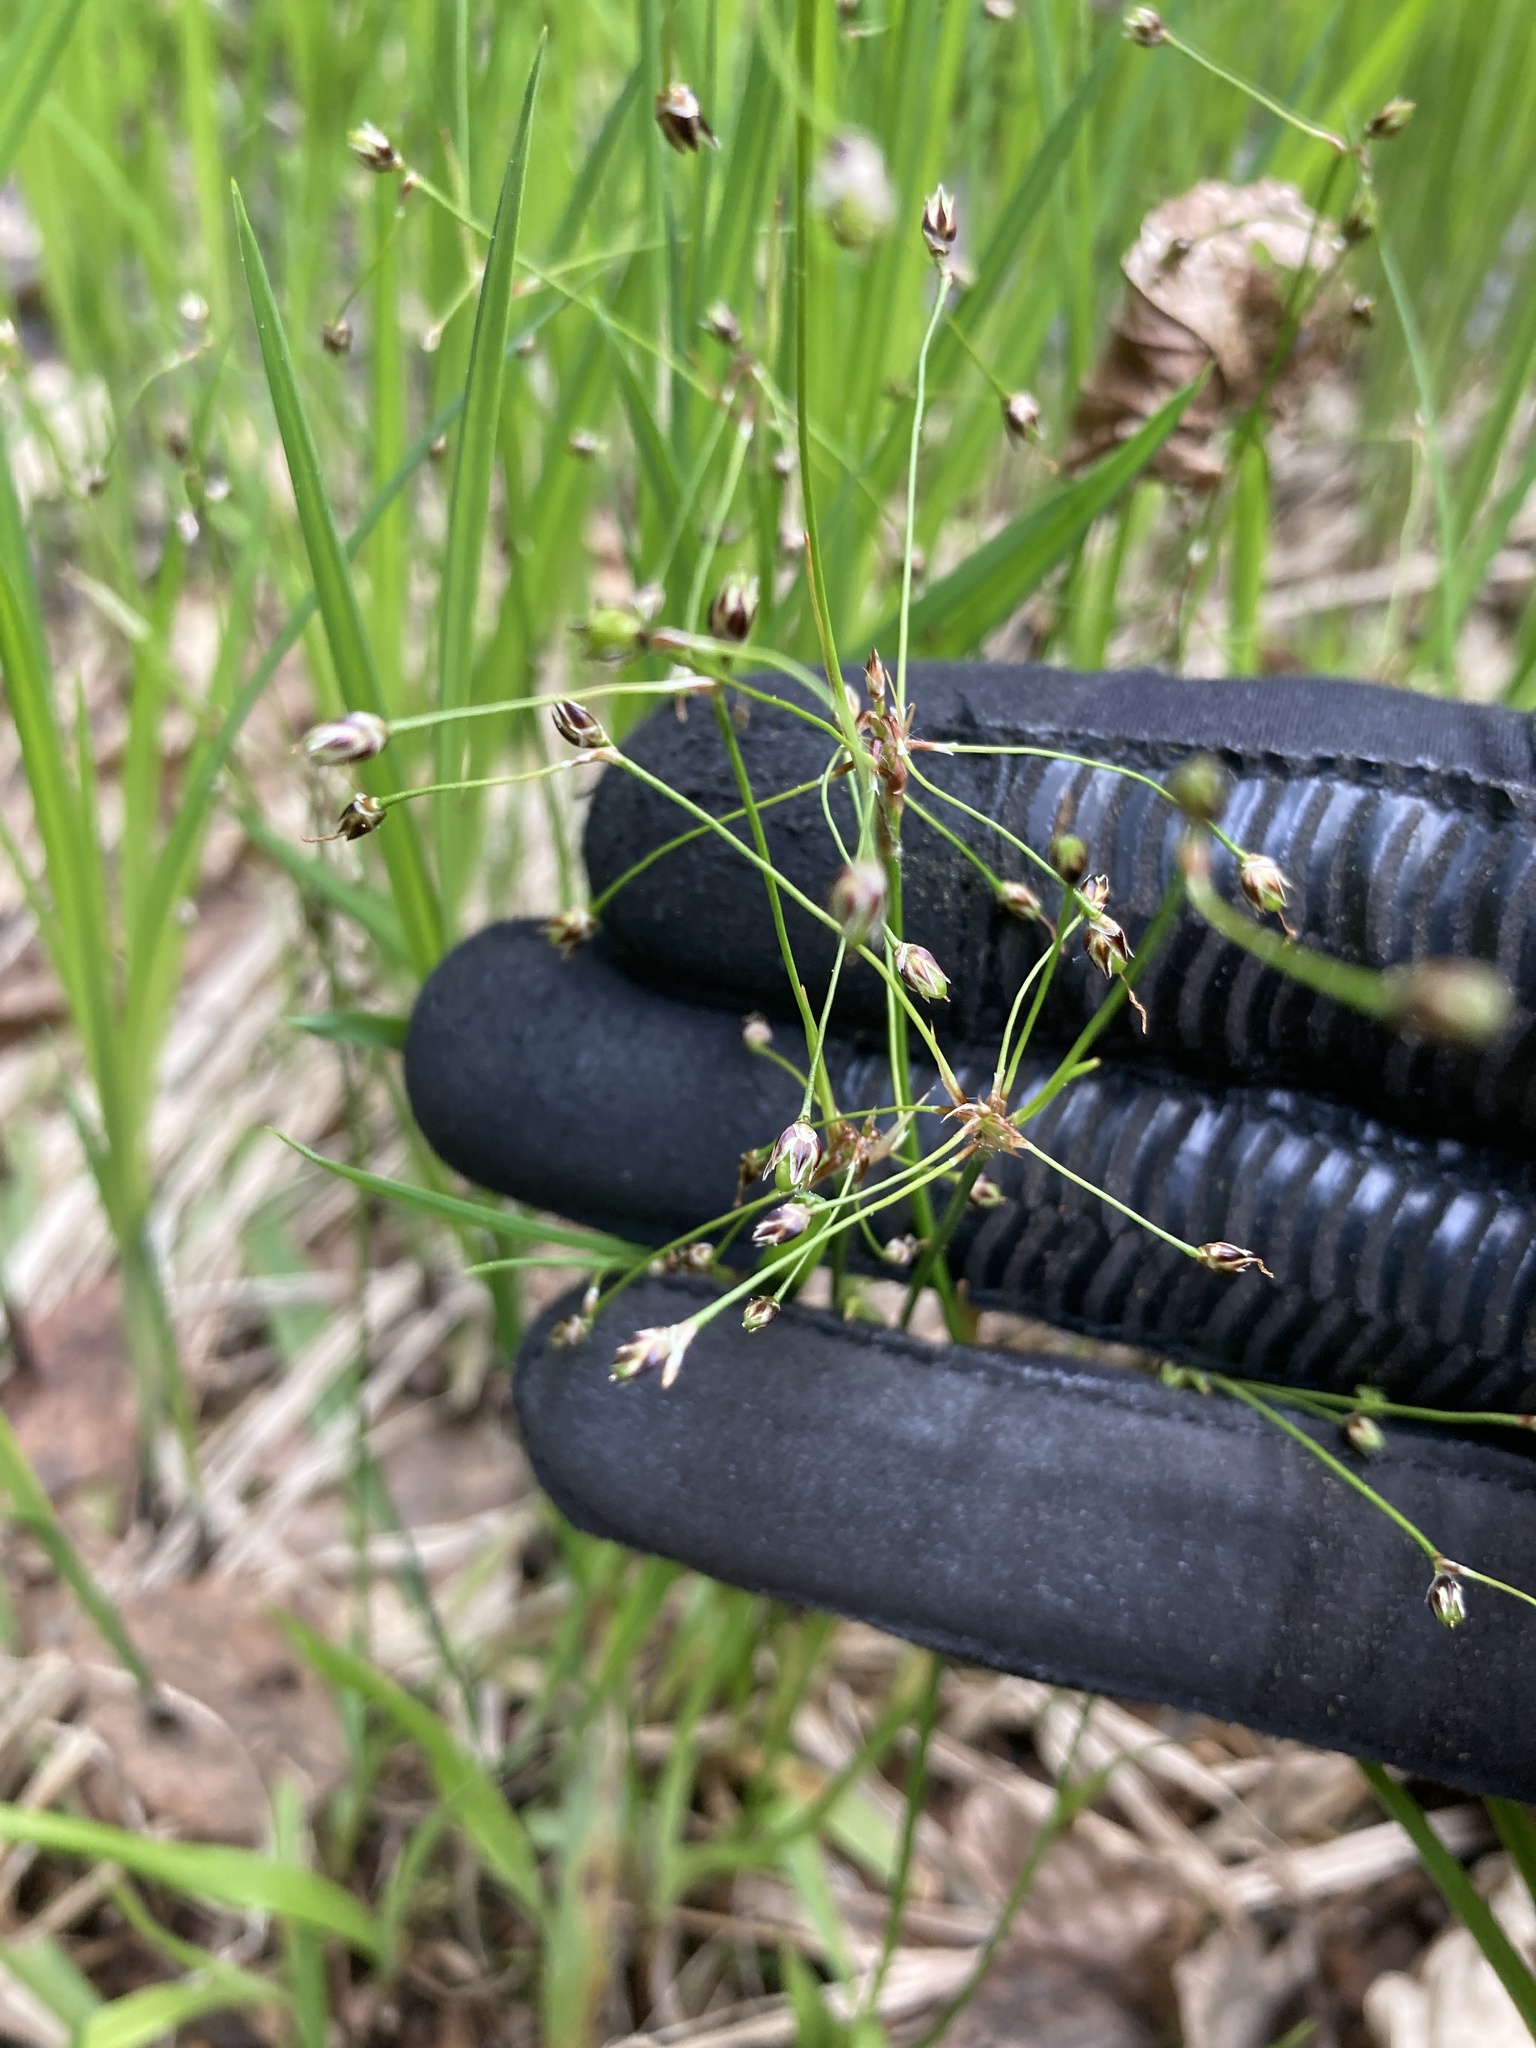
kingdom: Plantae
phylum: Tracheophyta
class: Liliopsida
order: Poales
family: Juncaceae
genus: Luzula
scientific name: Luzula pilosa
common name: Hairy wood-rush
